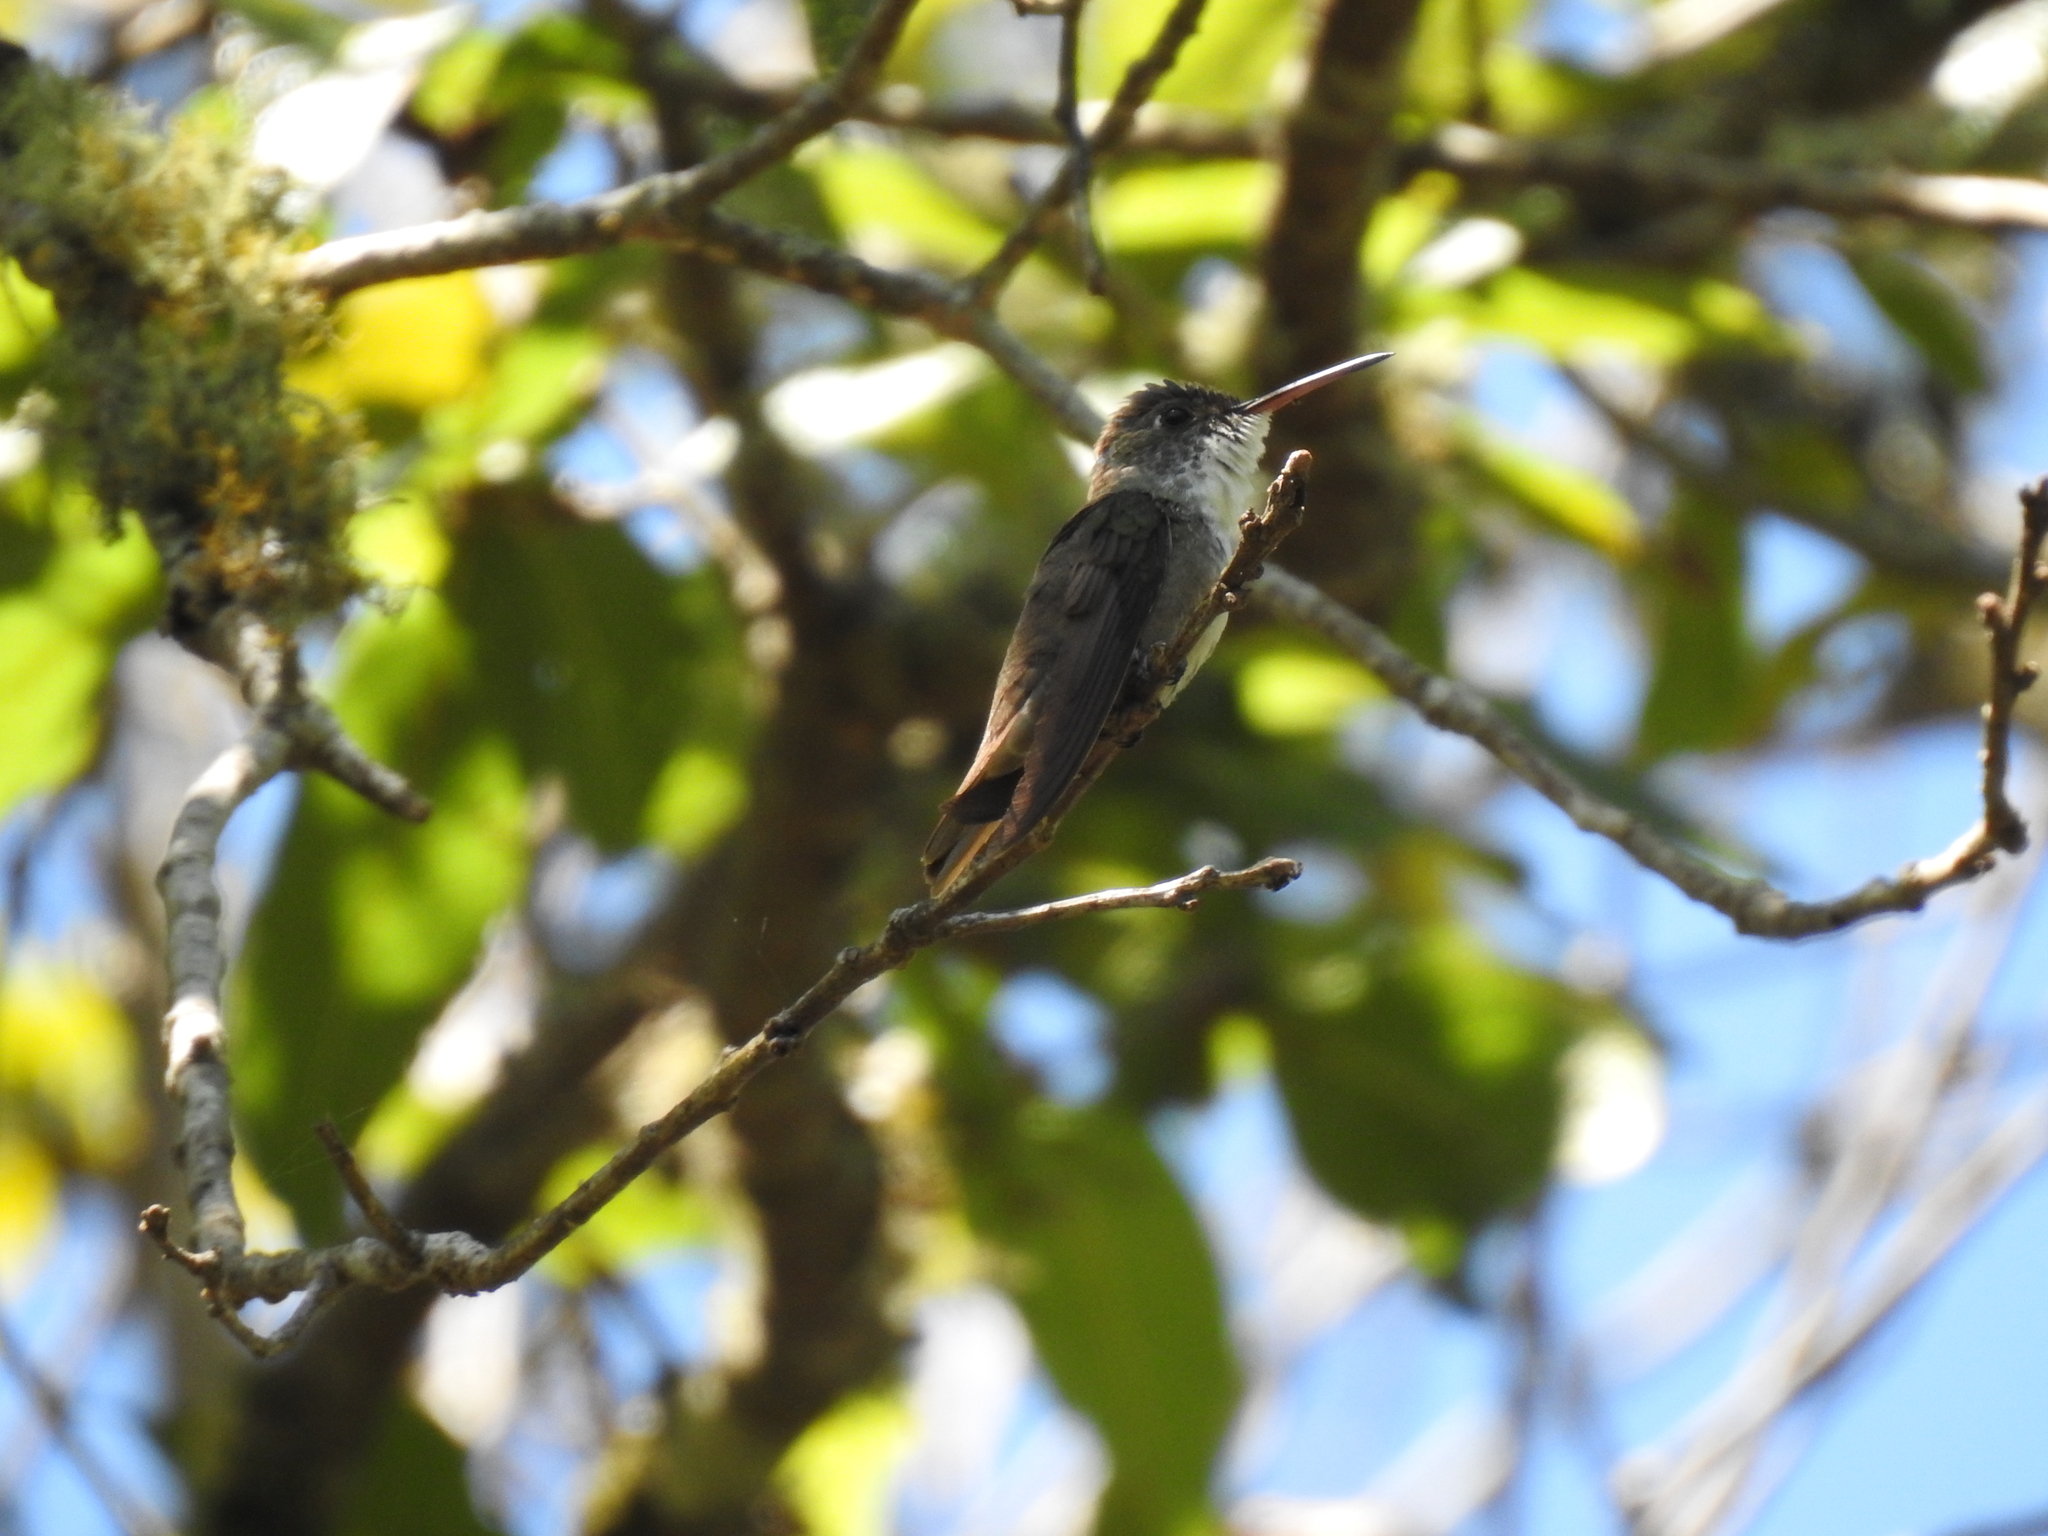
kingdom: Animalia
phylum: Chordata
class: Aves
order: Apodiformes
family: Trochilidae
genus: Saucerottia
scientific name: Saucerottia cyanocephala
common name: Azure-crowned hummingbird
